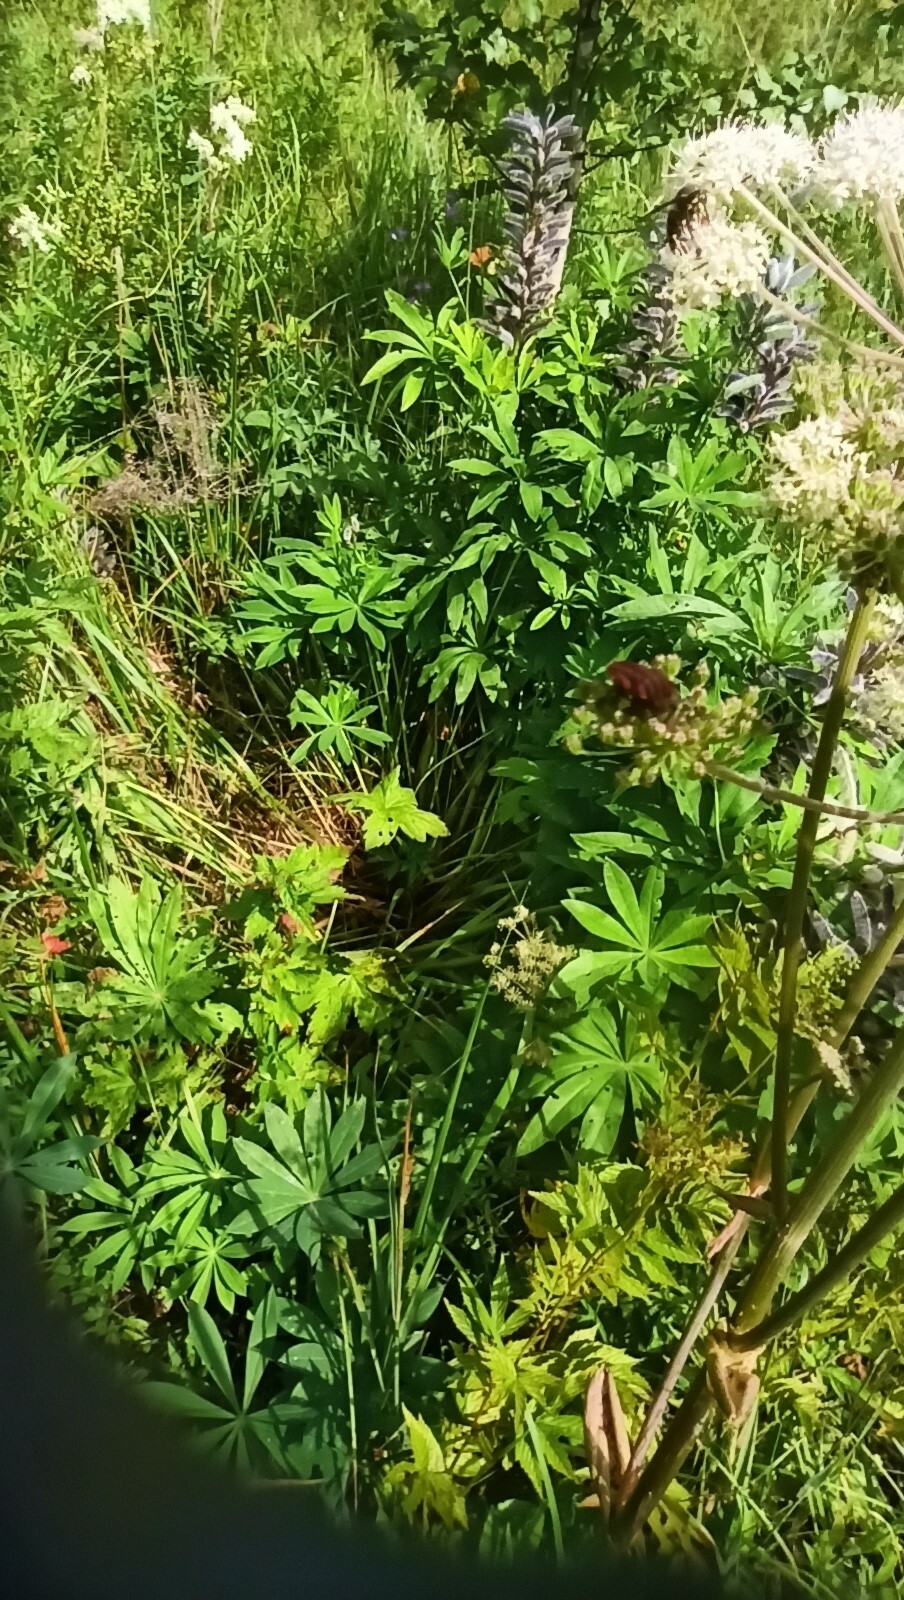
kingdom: Plantae
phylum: Tracheophyta
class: Magnoliopsida
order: Fabales
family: Fabaceae
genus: Lupinus
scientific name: Lupinus polyphyllus
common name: Garden lupin
